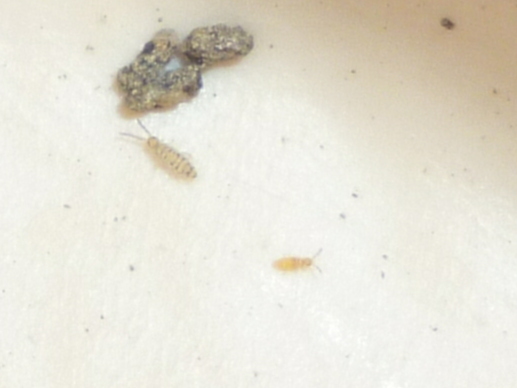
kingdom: Animalia
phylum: Arthropoda
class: Collembola
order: Entomobryomorpha
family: Entomobryidae
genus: Entomobrya
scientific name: Entomobrya multifasciata
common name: Springtail
